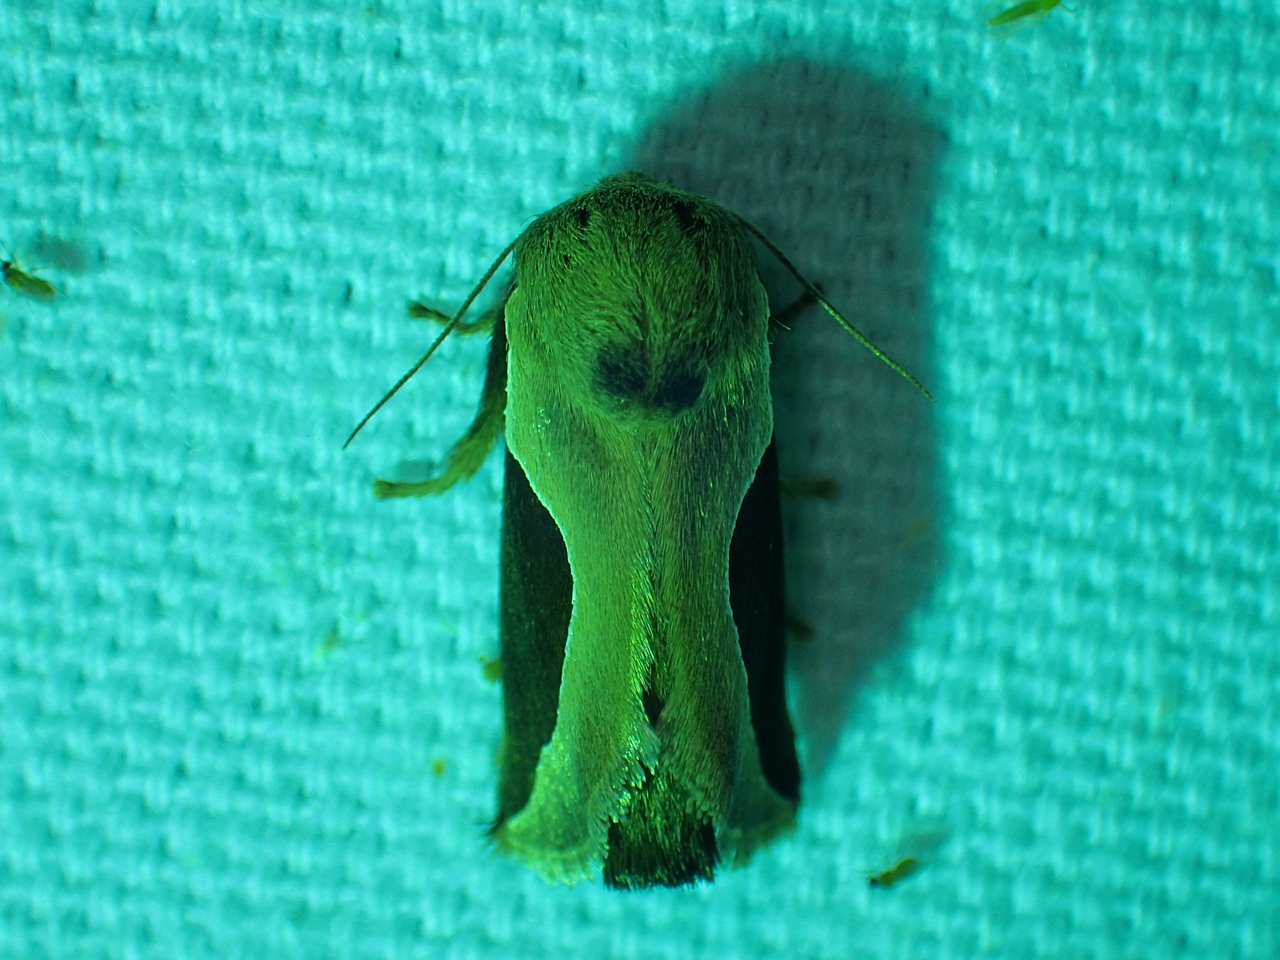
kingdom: Animalia
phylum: Arthropoda
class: Insecta
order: Lepidoptera
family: Limacodidae
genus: Prolimacodes
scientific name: Prolimacodes badia
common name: Skiff moth
